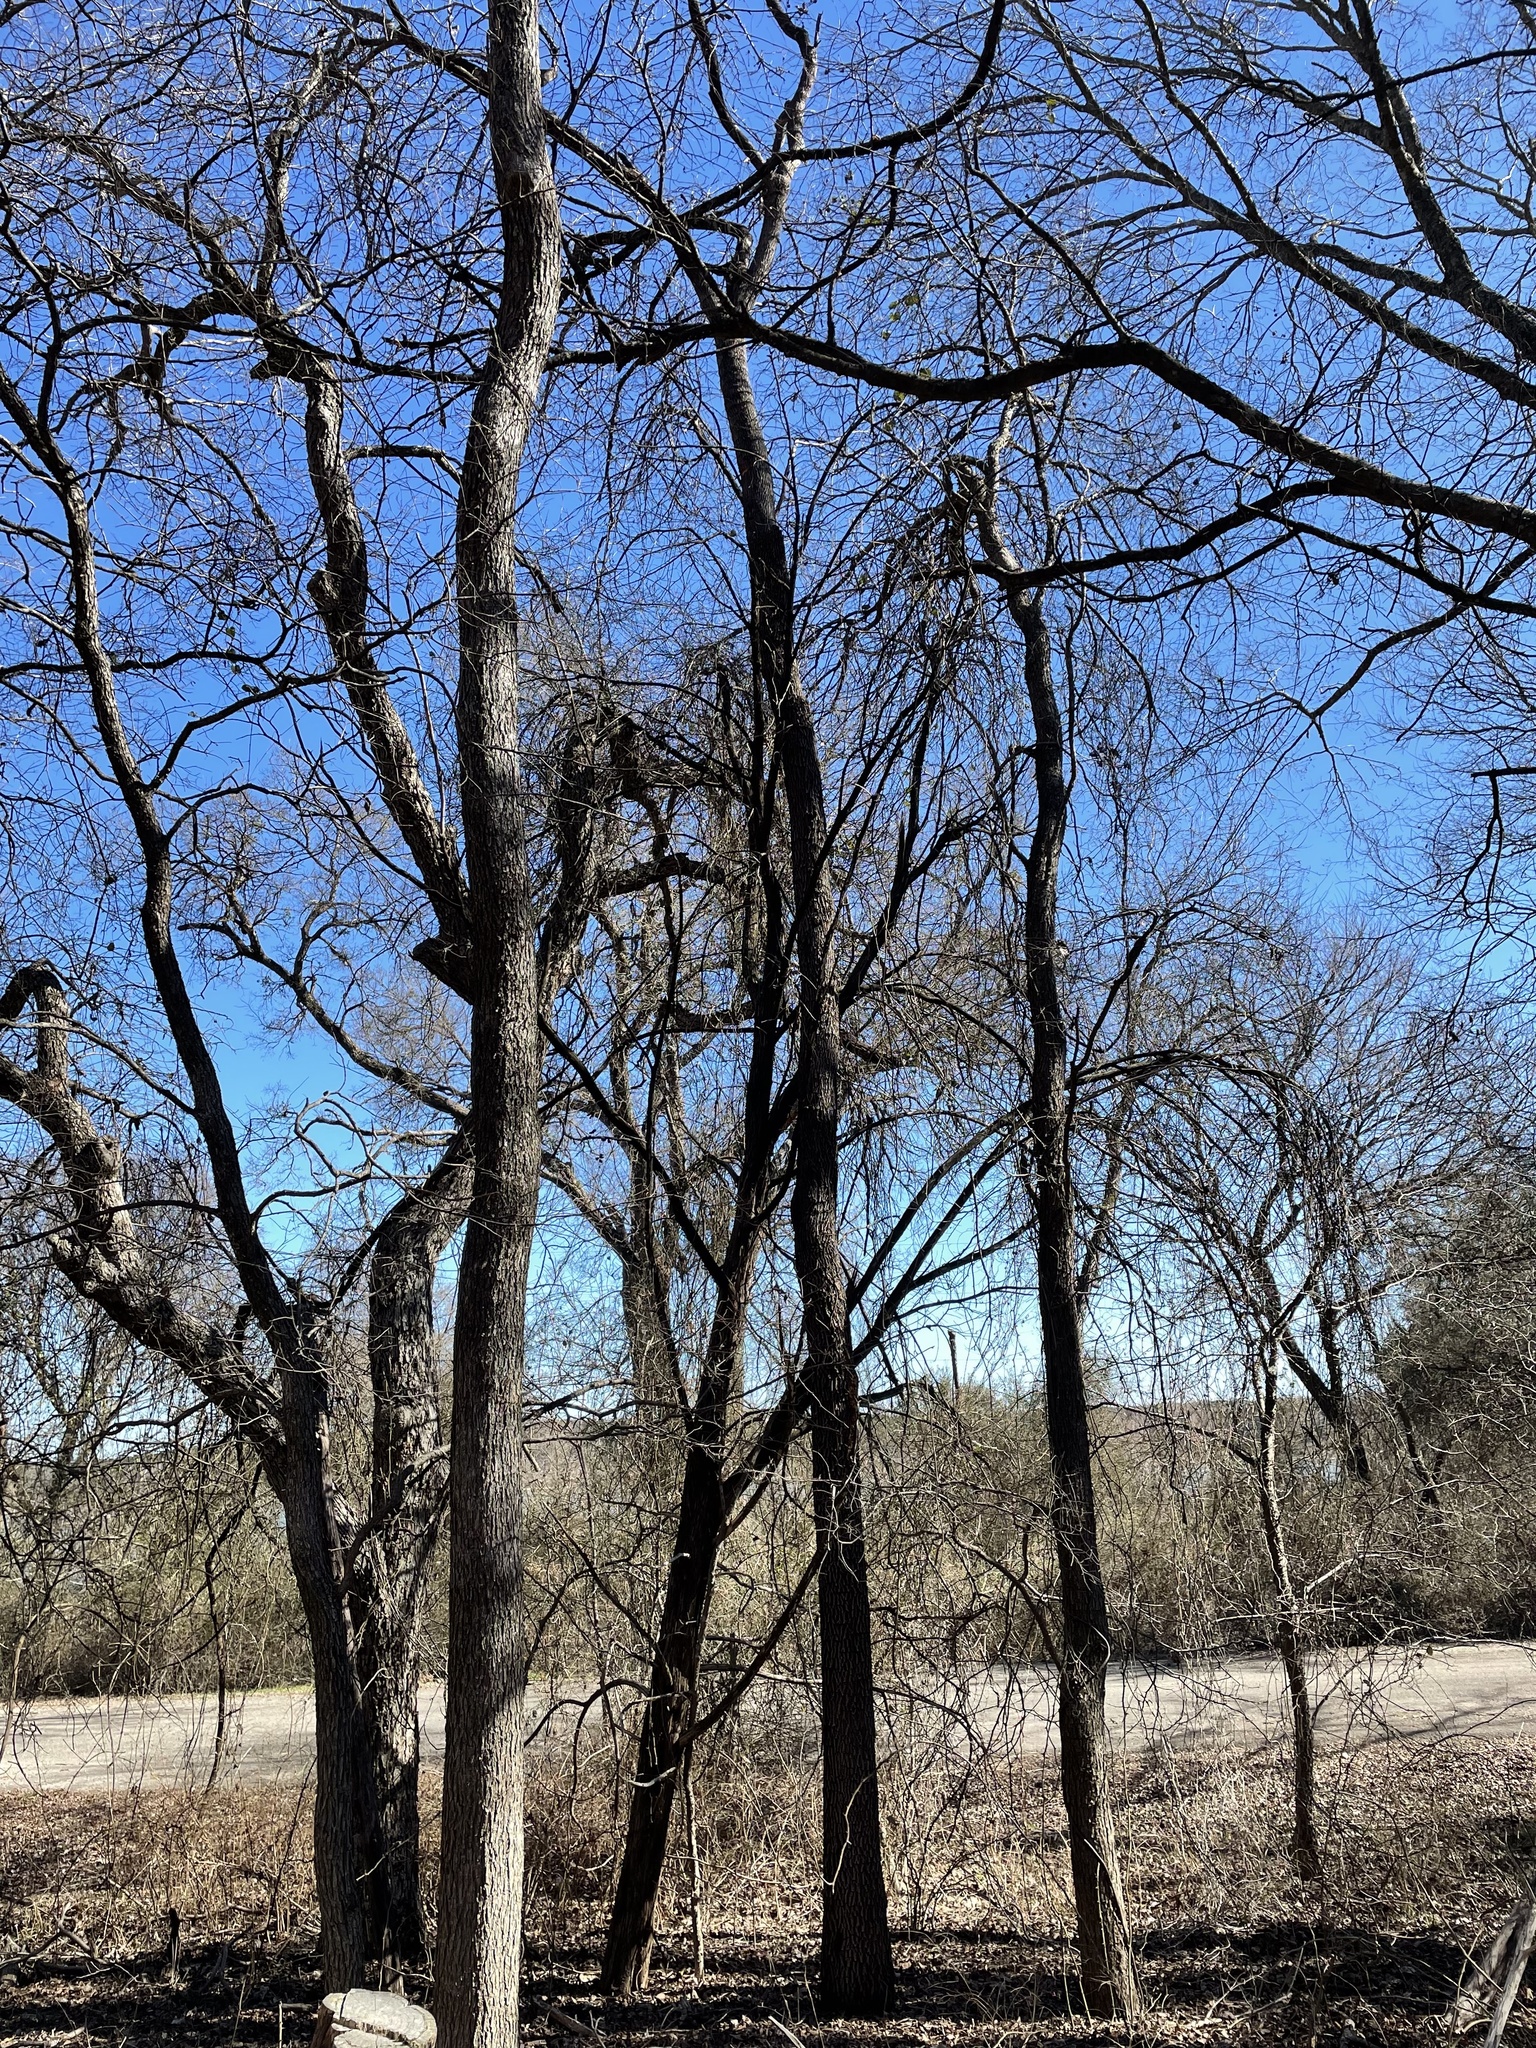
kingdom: Plantae
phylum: Tracheophyta
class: Magnoliopsida
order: Ericales
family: Sapotaceae
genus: Sideroxylon
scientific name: Sideroxylon lanuginosum
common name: Chittamwood
